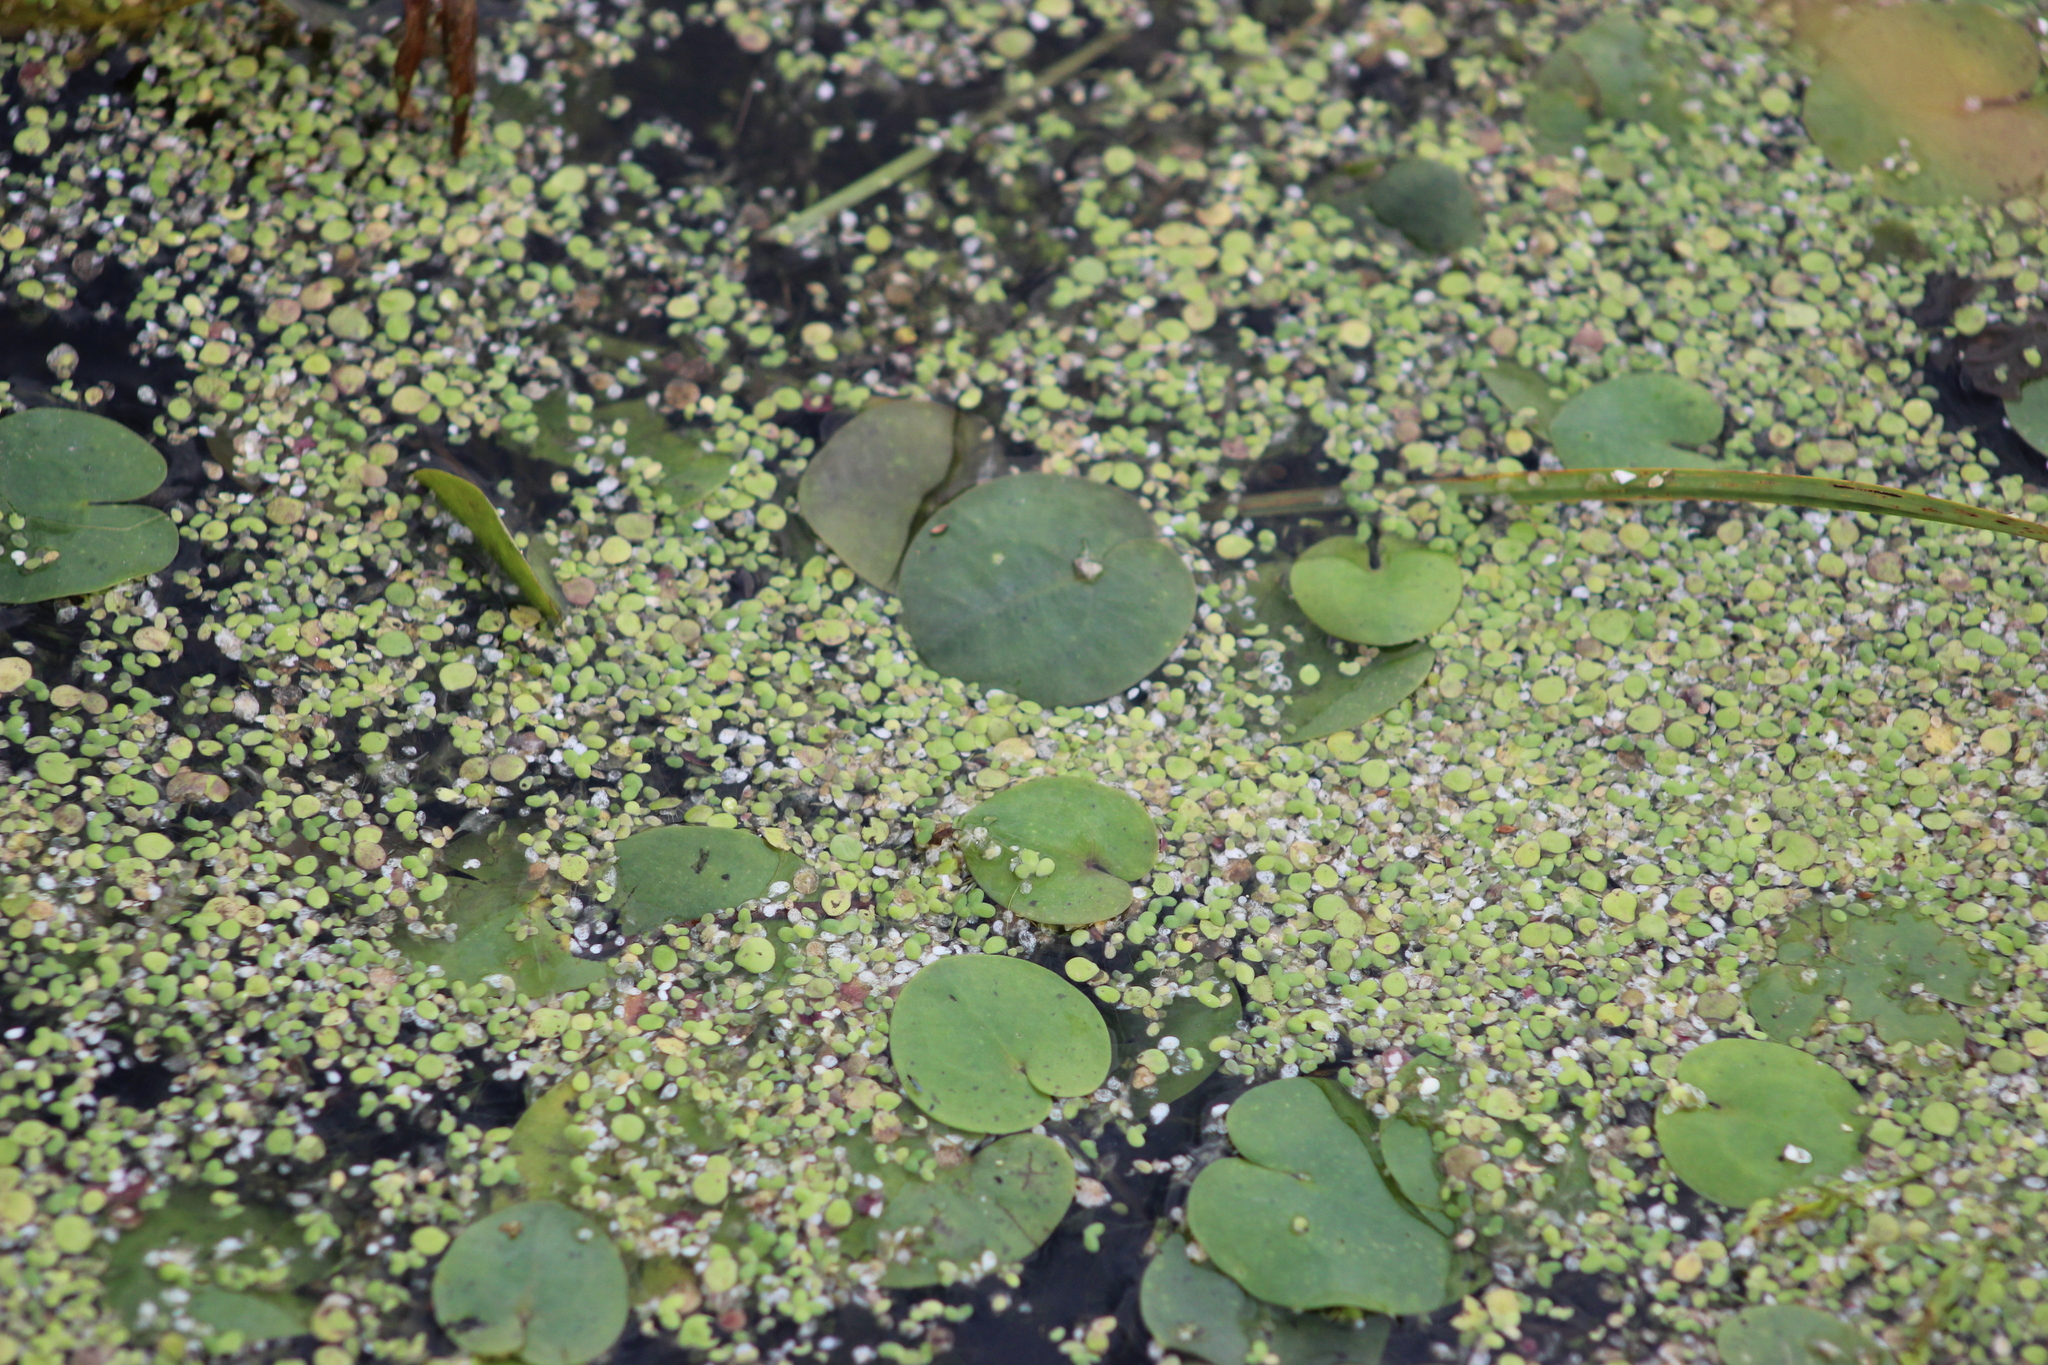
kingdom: Plantae
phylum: Tracheophyta
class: Liliopsida
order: Alismatales
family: Hydrocharitaceae
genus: Hydrocharis
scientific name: Hydrocharis morsus-ranae
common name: Frogbit
